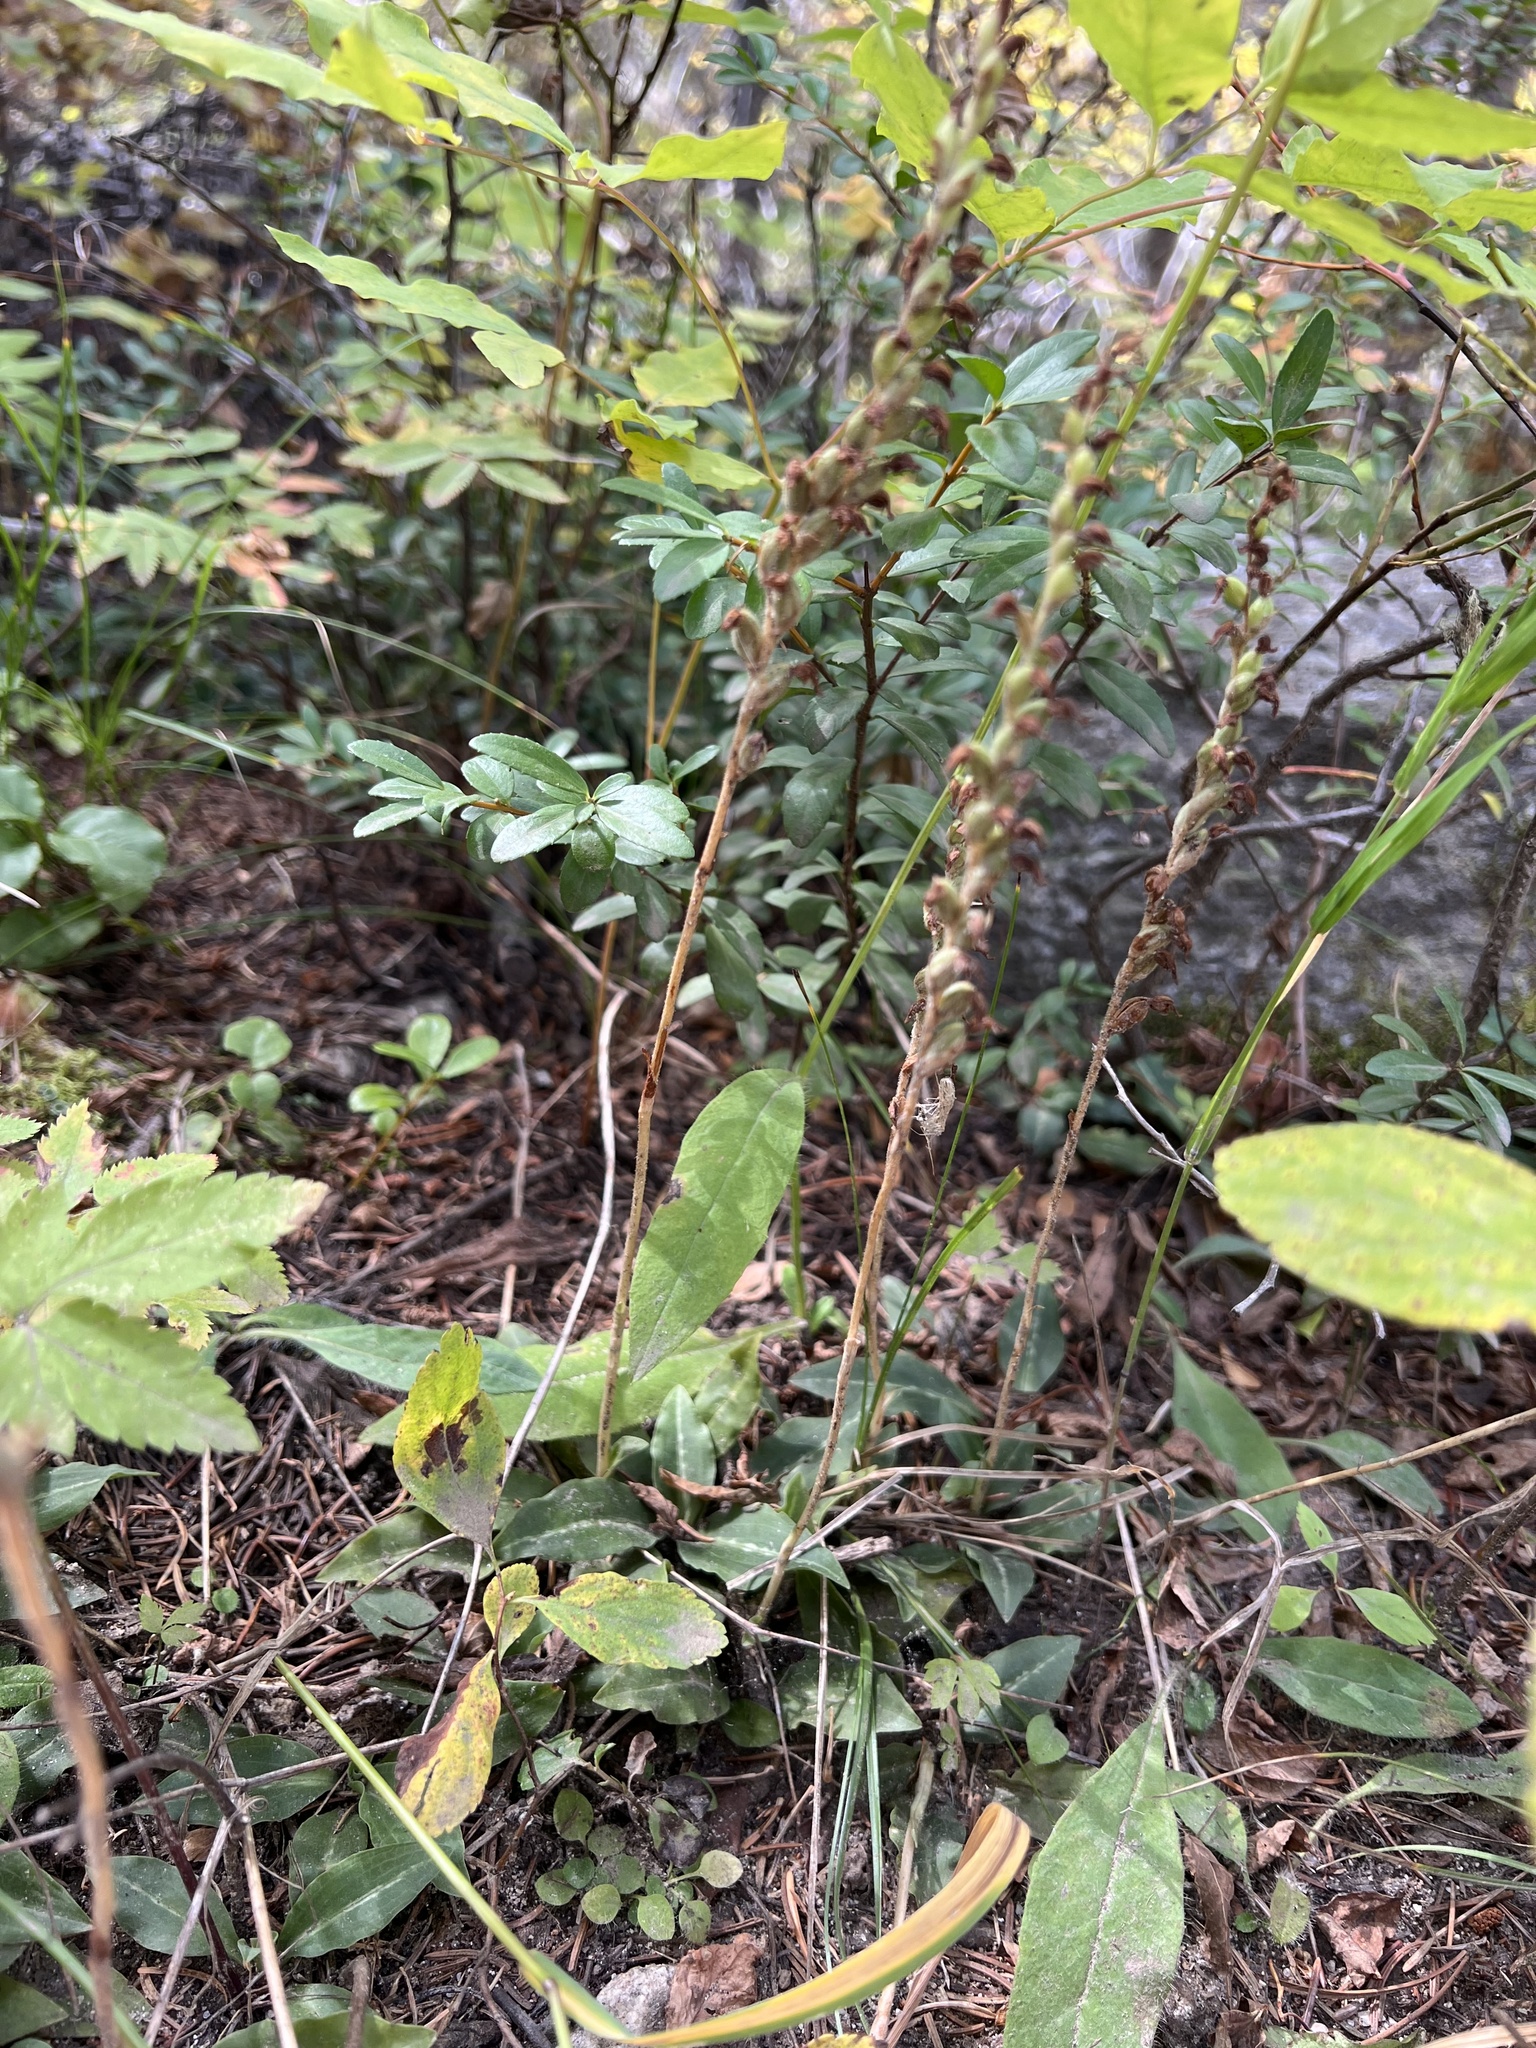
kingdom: Plantae
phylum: Tracheophyta
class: Liliopsida
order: Asparagales
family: Orchidaceae
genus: Goodyera
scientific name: Goodyera oblongifolia
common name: Giant rattlesnake-plantain
